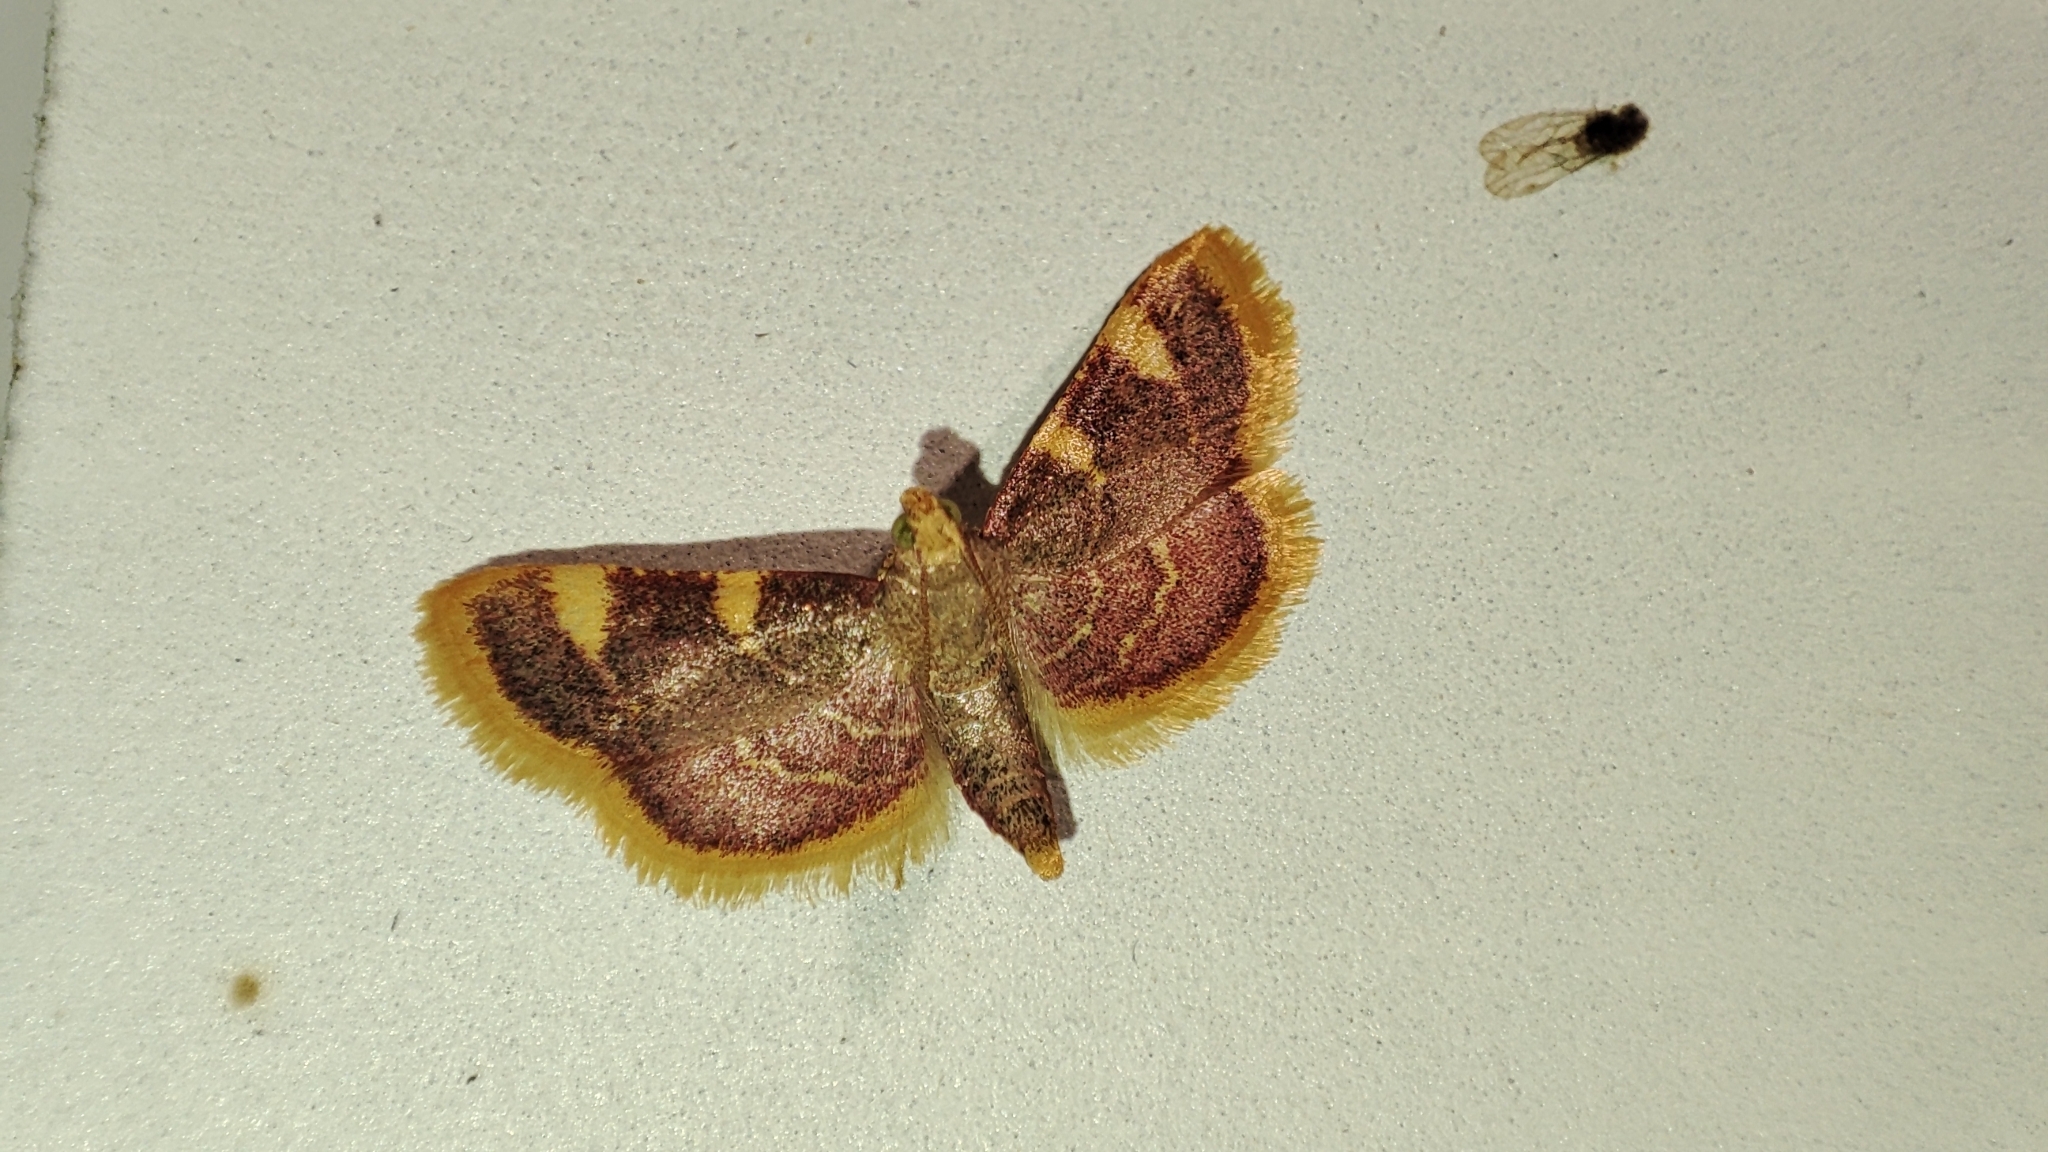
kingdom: Animalia
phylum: Arthropoda
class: Insecta
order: Lepidoptera
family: Pyralidae
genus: Hypsopygia
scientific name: Hypsopygia costalis
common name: Gold triangle
